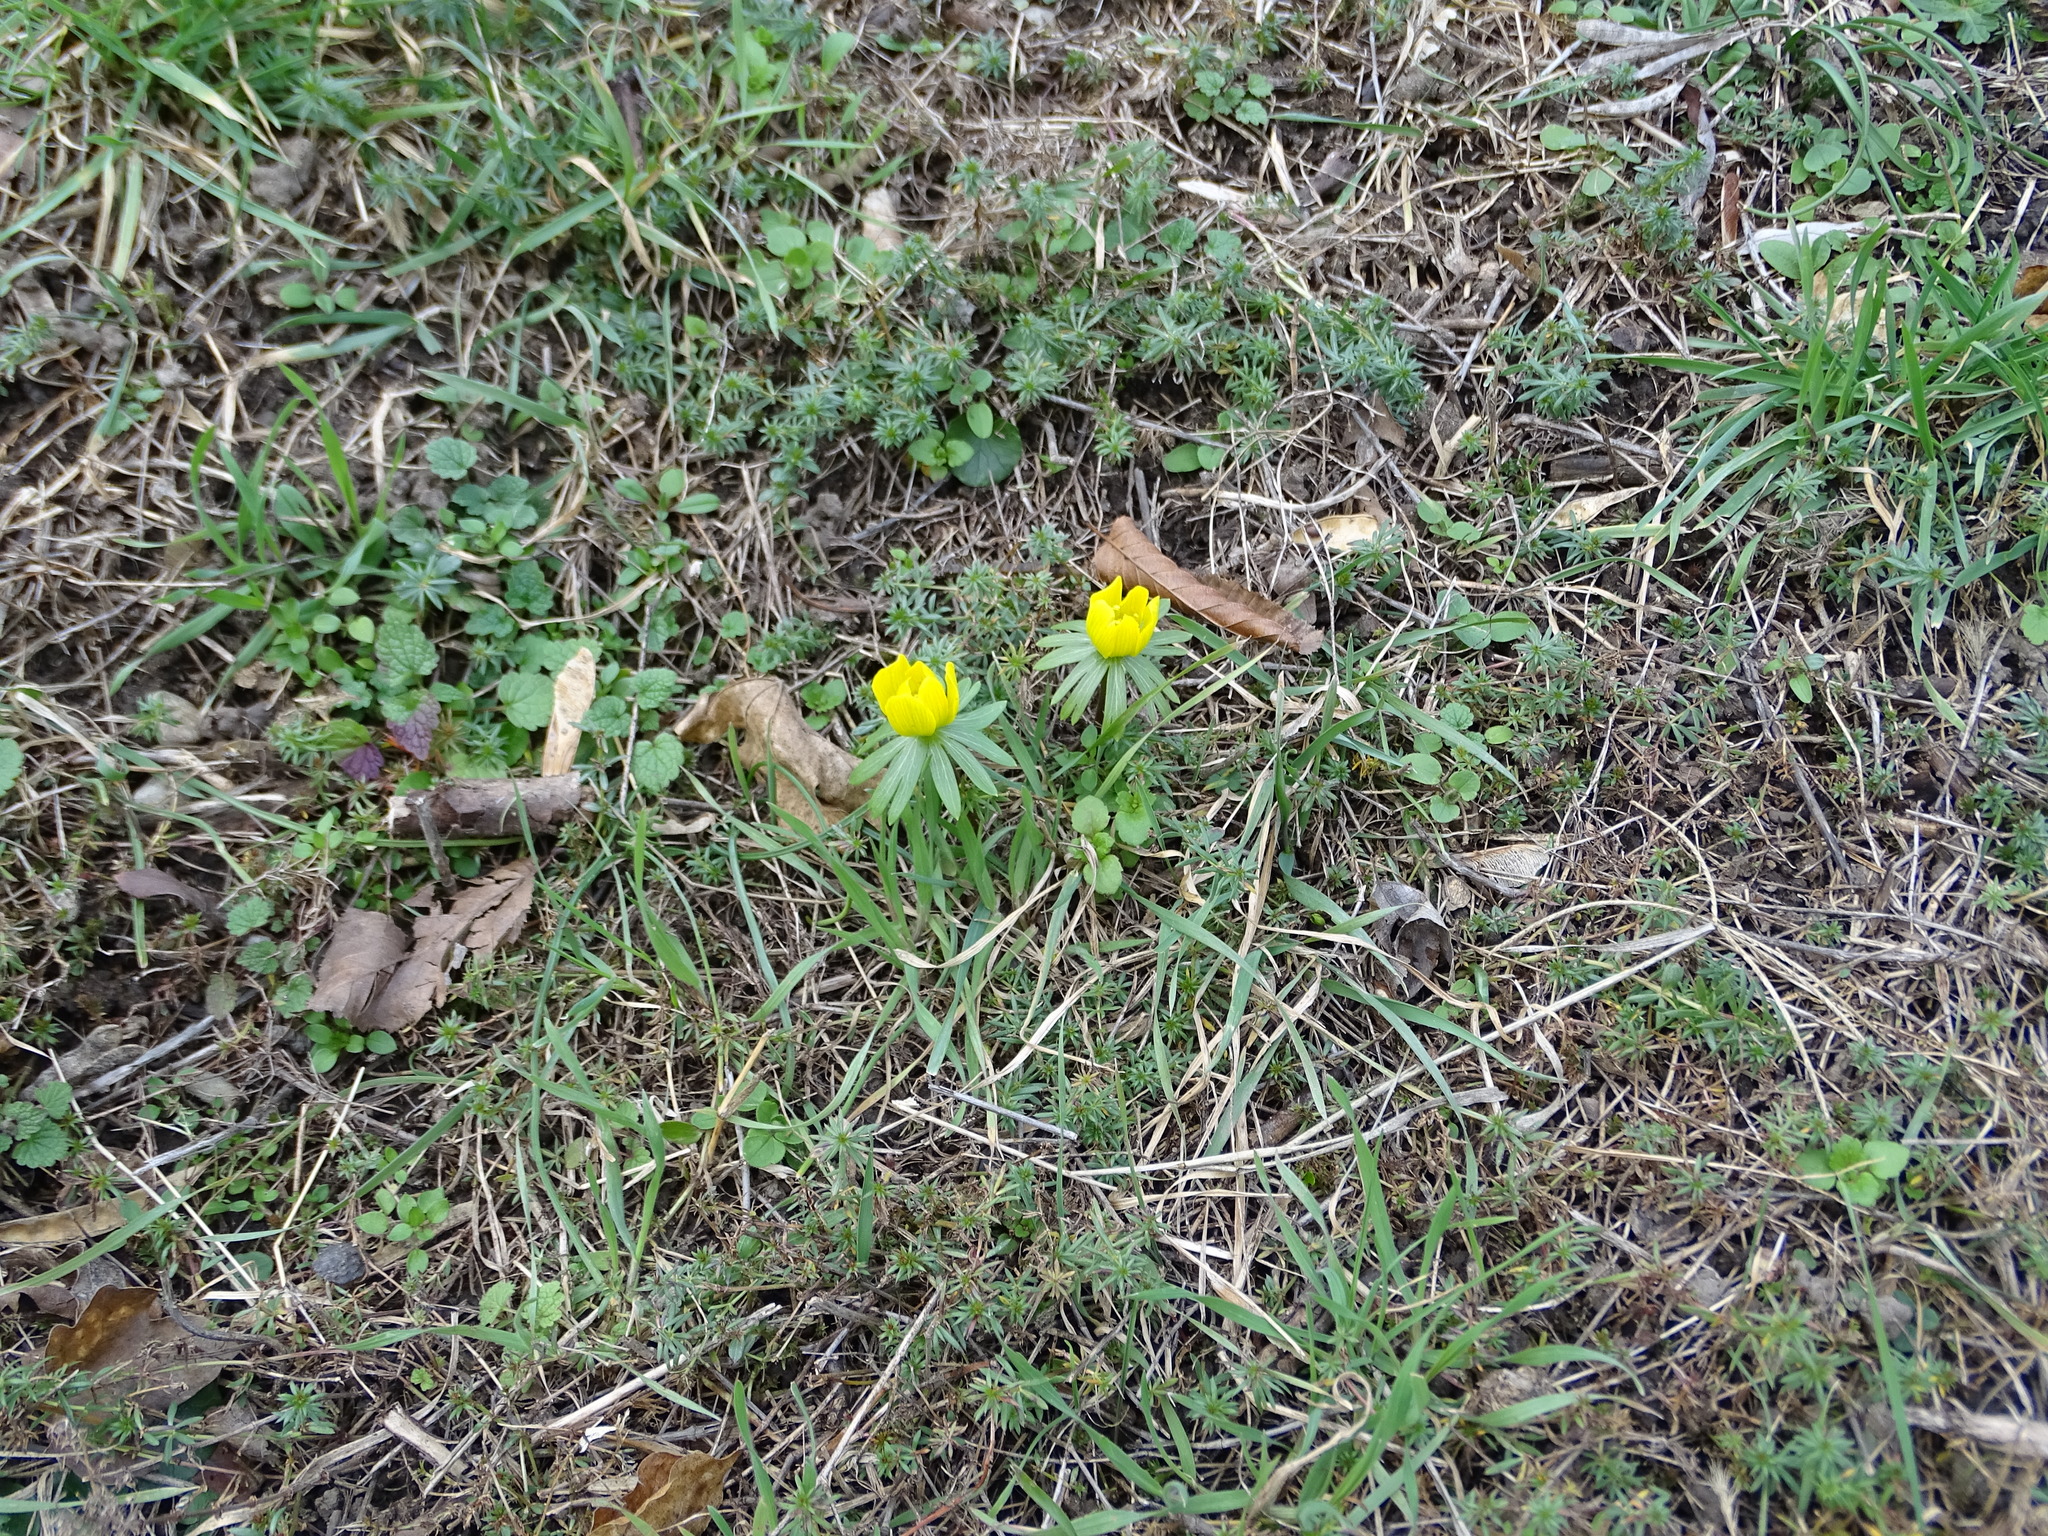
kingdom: Plantae
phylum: Tracheophyta
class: Magnoliopsida
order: Ranunculales
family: Ranunculaceae
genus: Eranthis
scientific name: Eranthis hyemalis
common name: Winter aconite
